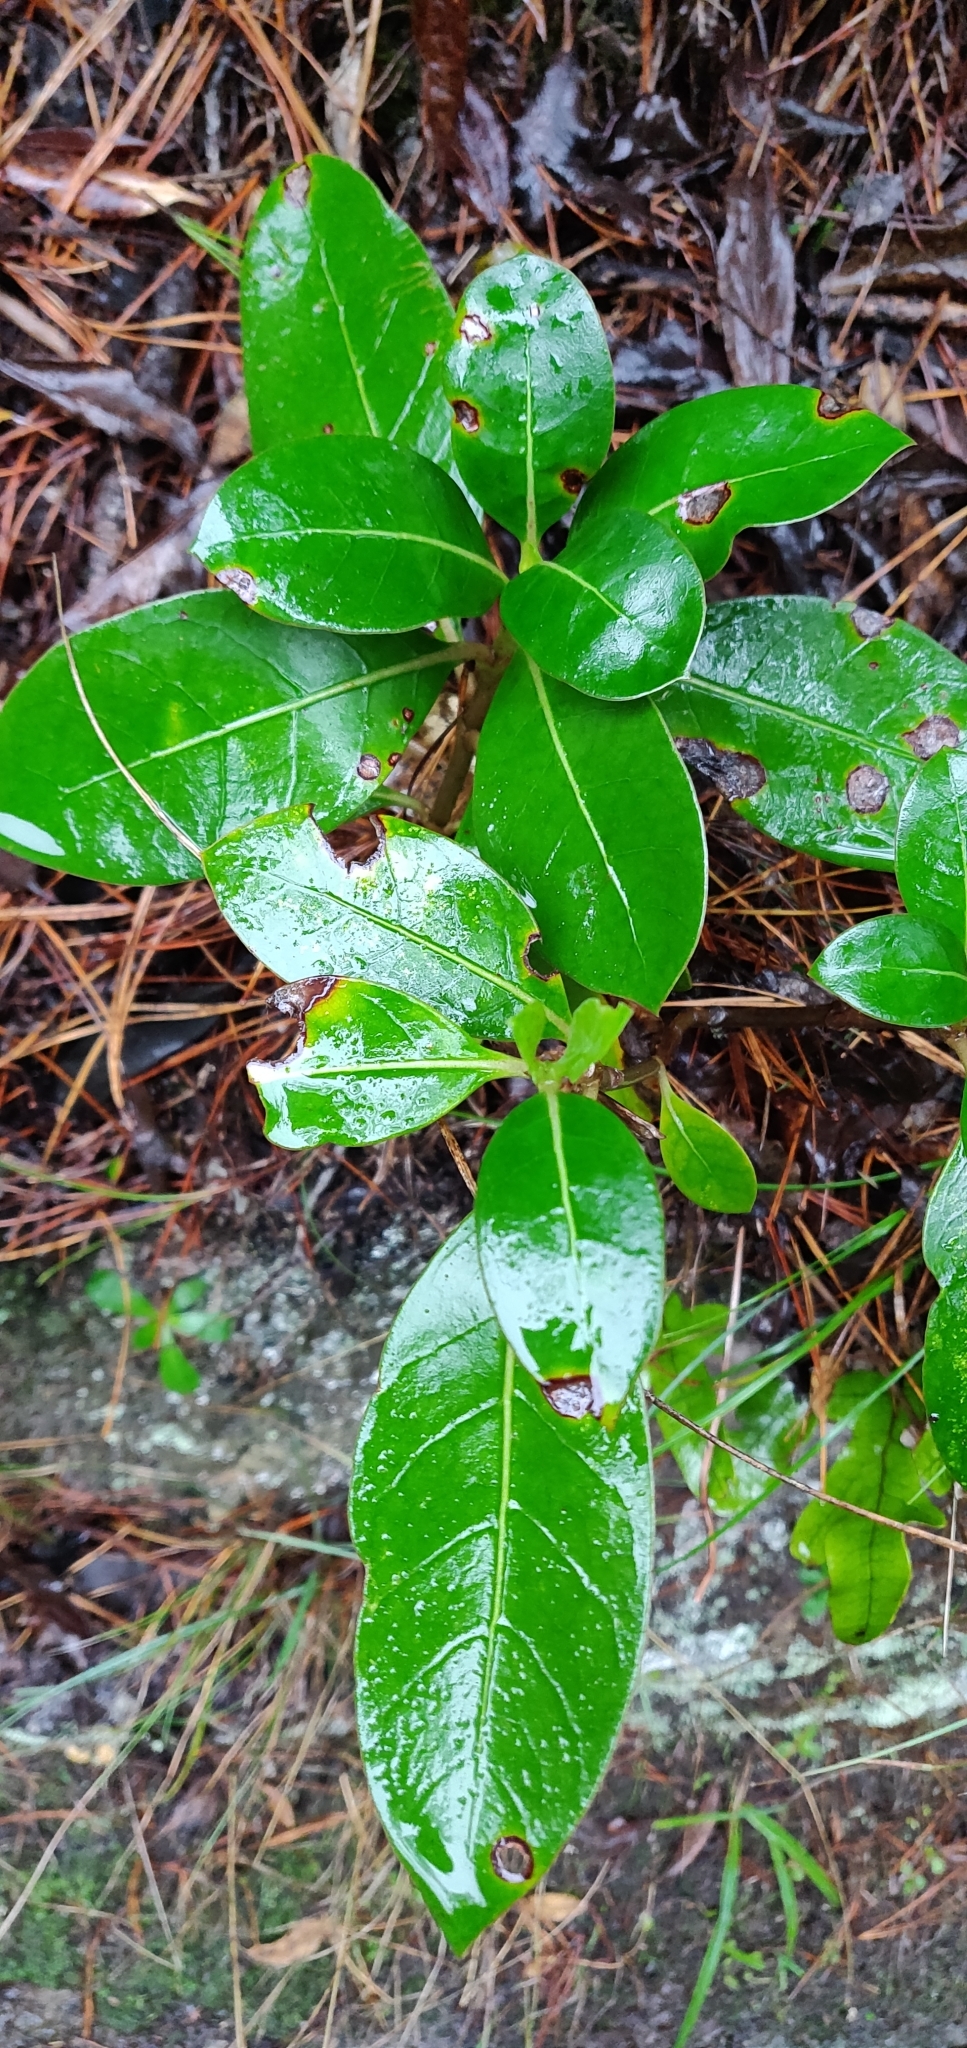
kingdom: Plantae
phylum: Tracheophyta
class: Magnoliopsida
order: Gentianales
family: Rubiaceae
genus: Coprosma
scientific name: Coprosma lucida
